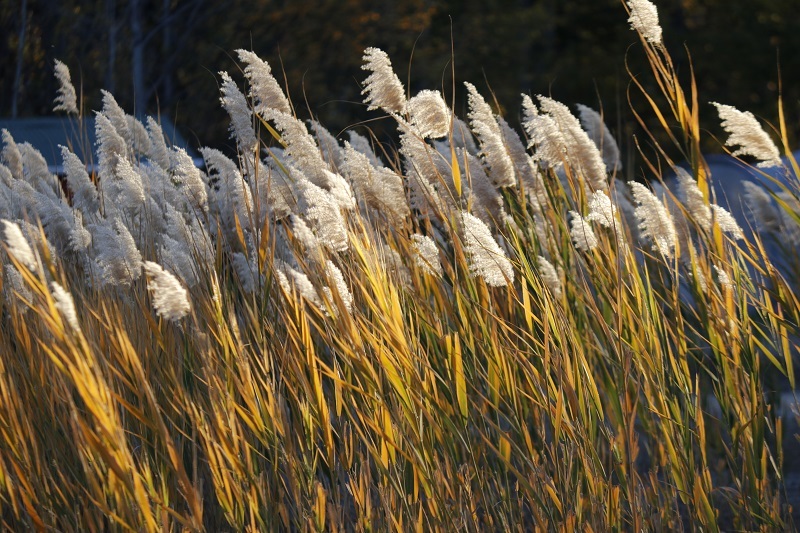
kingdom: Plantae
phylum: Tracheophyta
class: Liliopsida
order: Poales
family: Poaceae
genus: Phragmites
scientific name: Phragmites australis
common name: Common reed
